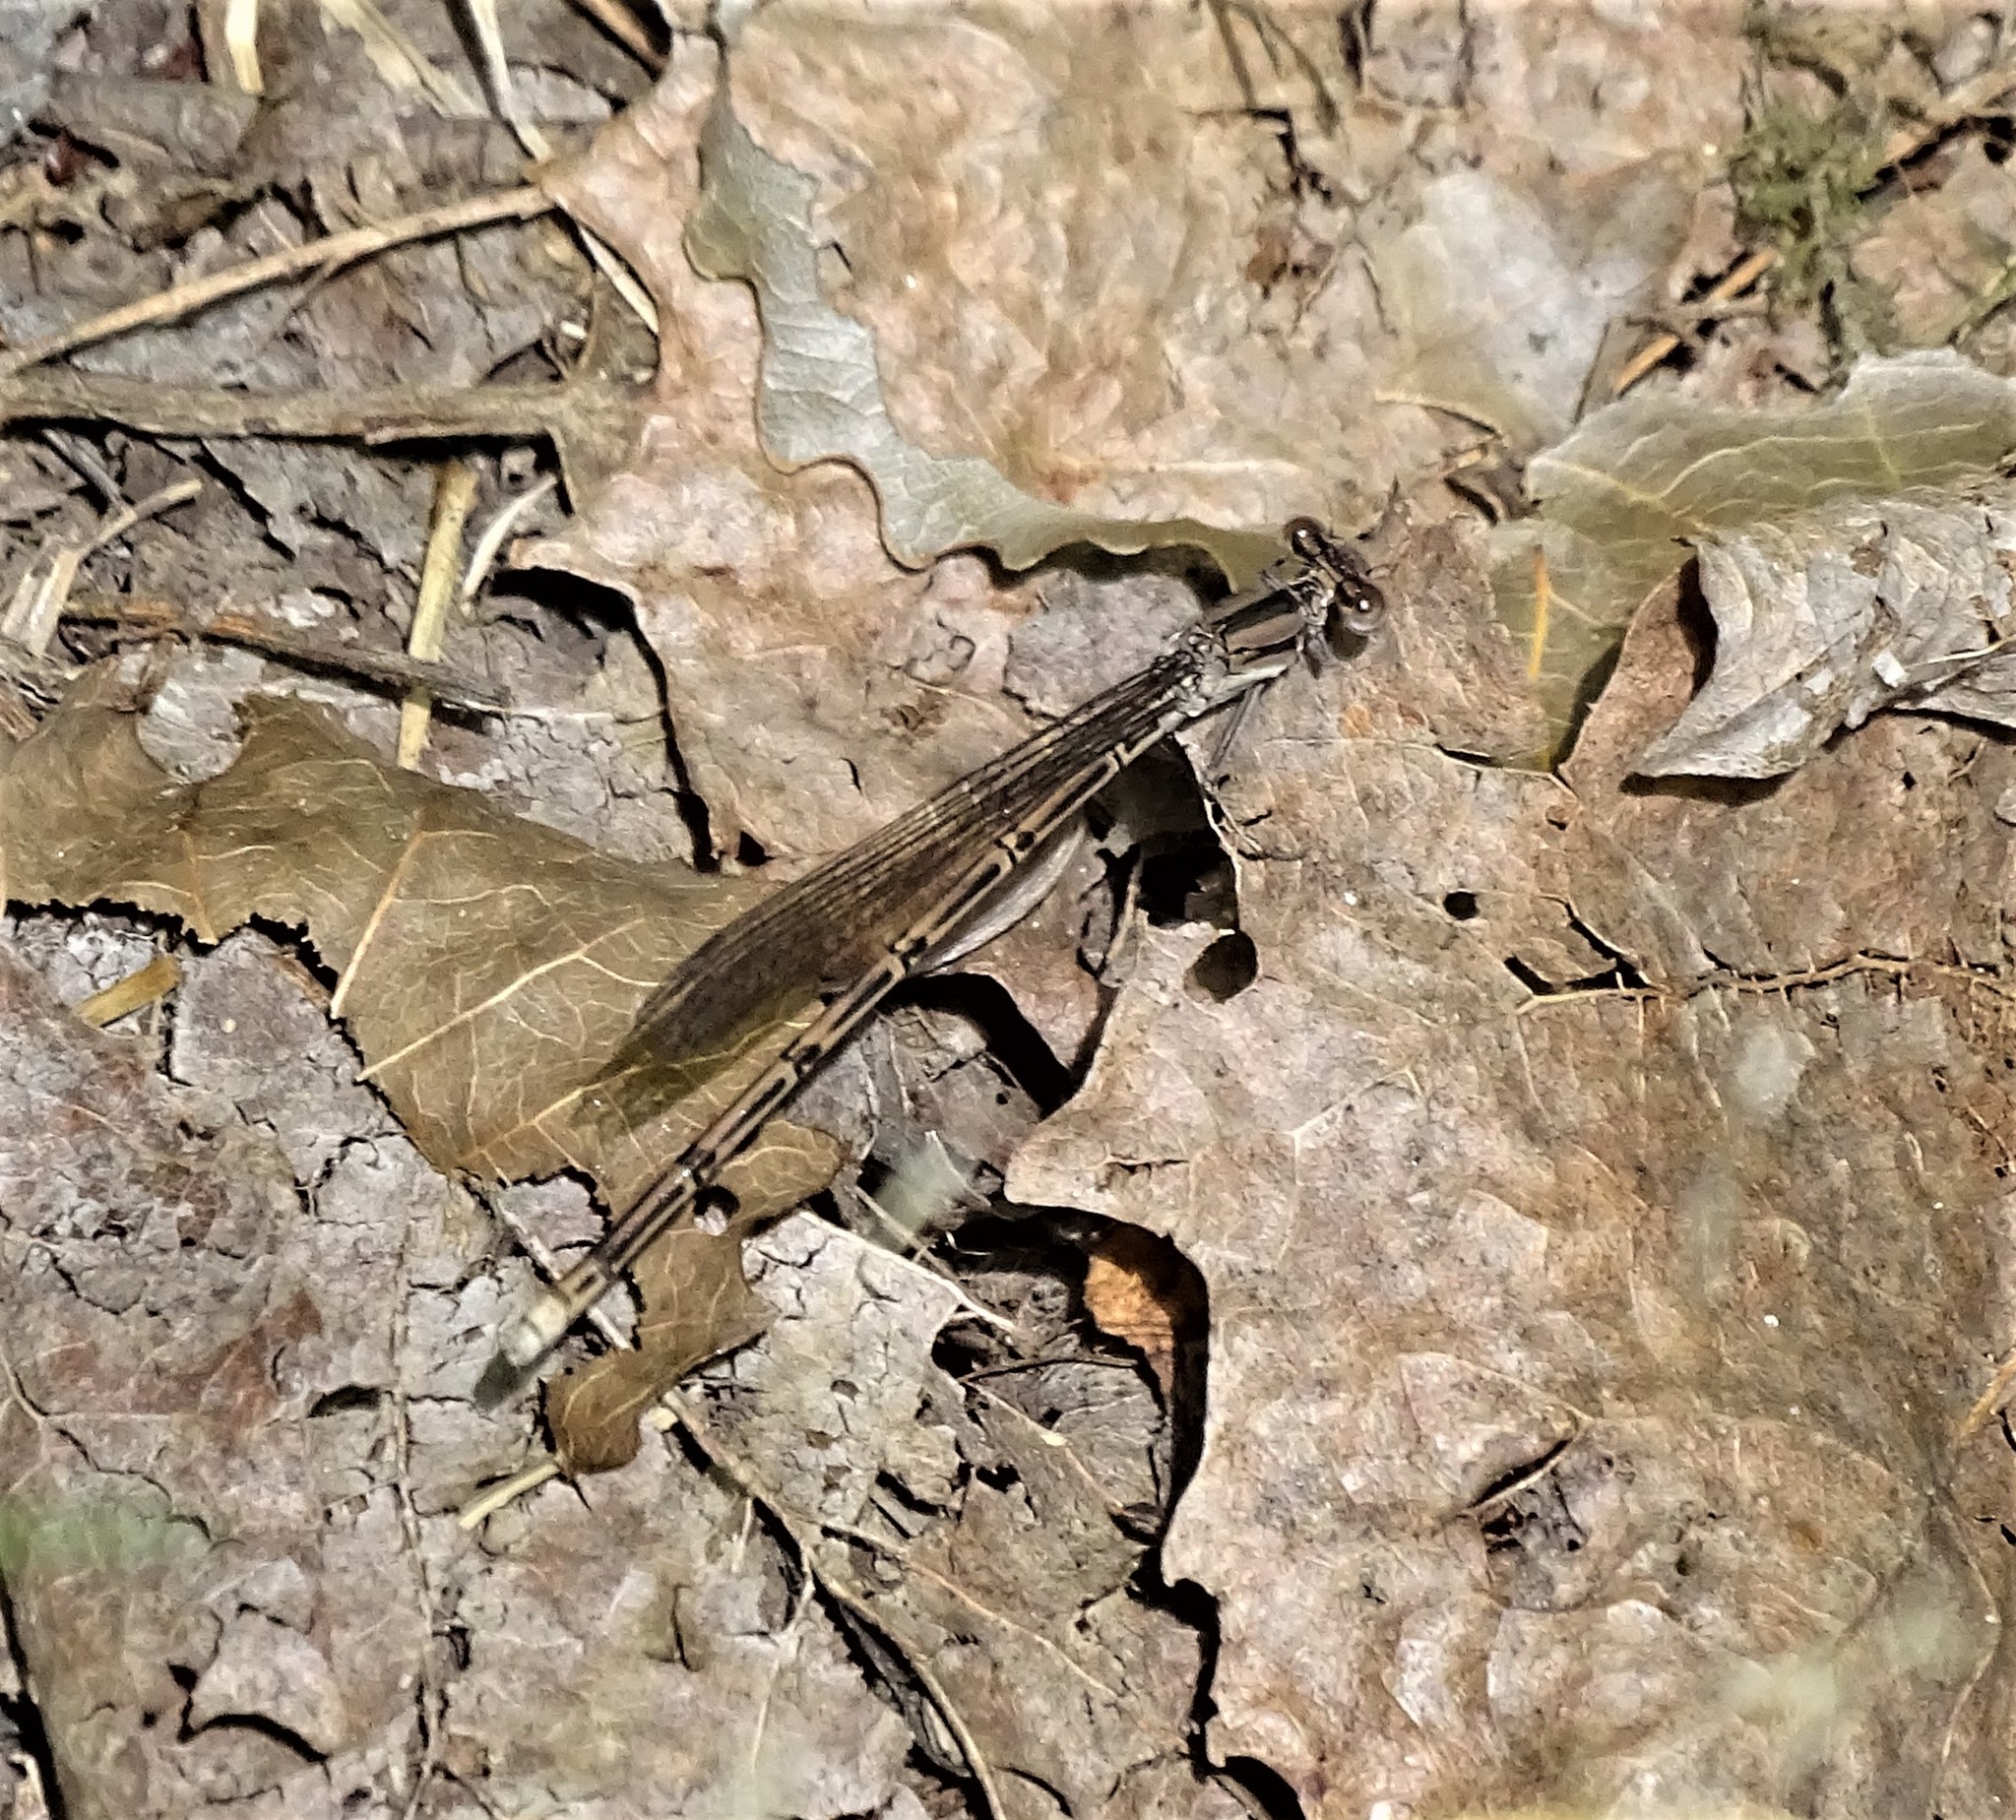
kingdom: Animalia
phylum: Arthropoda
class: Insecta
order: Odonata
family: Coenagrionidae
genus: Argia
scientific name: Argia fumipennis
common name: Variable dancer
